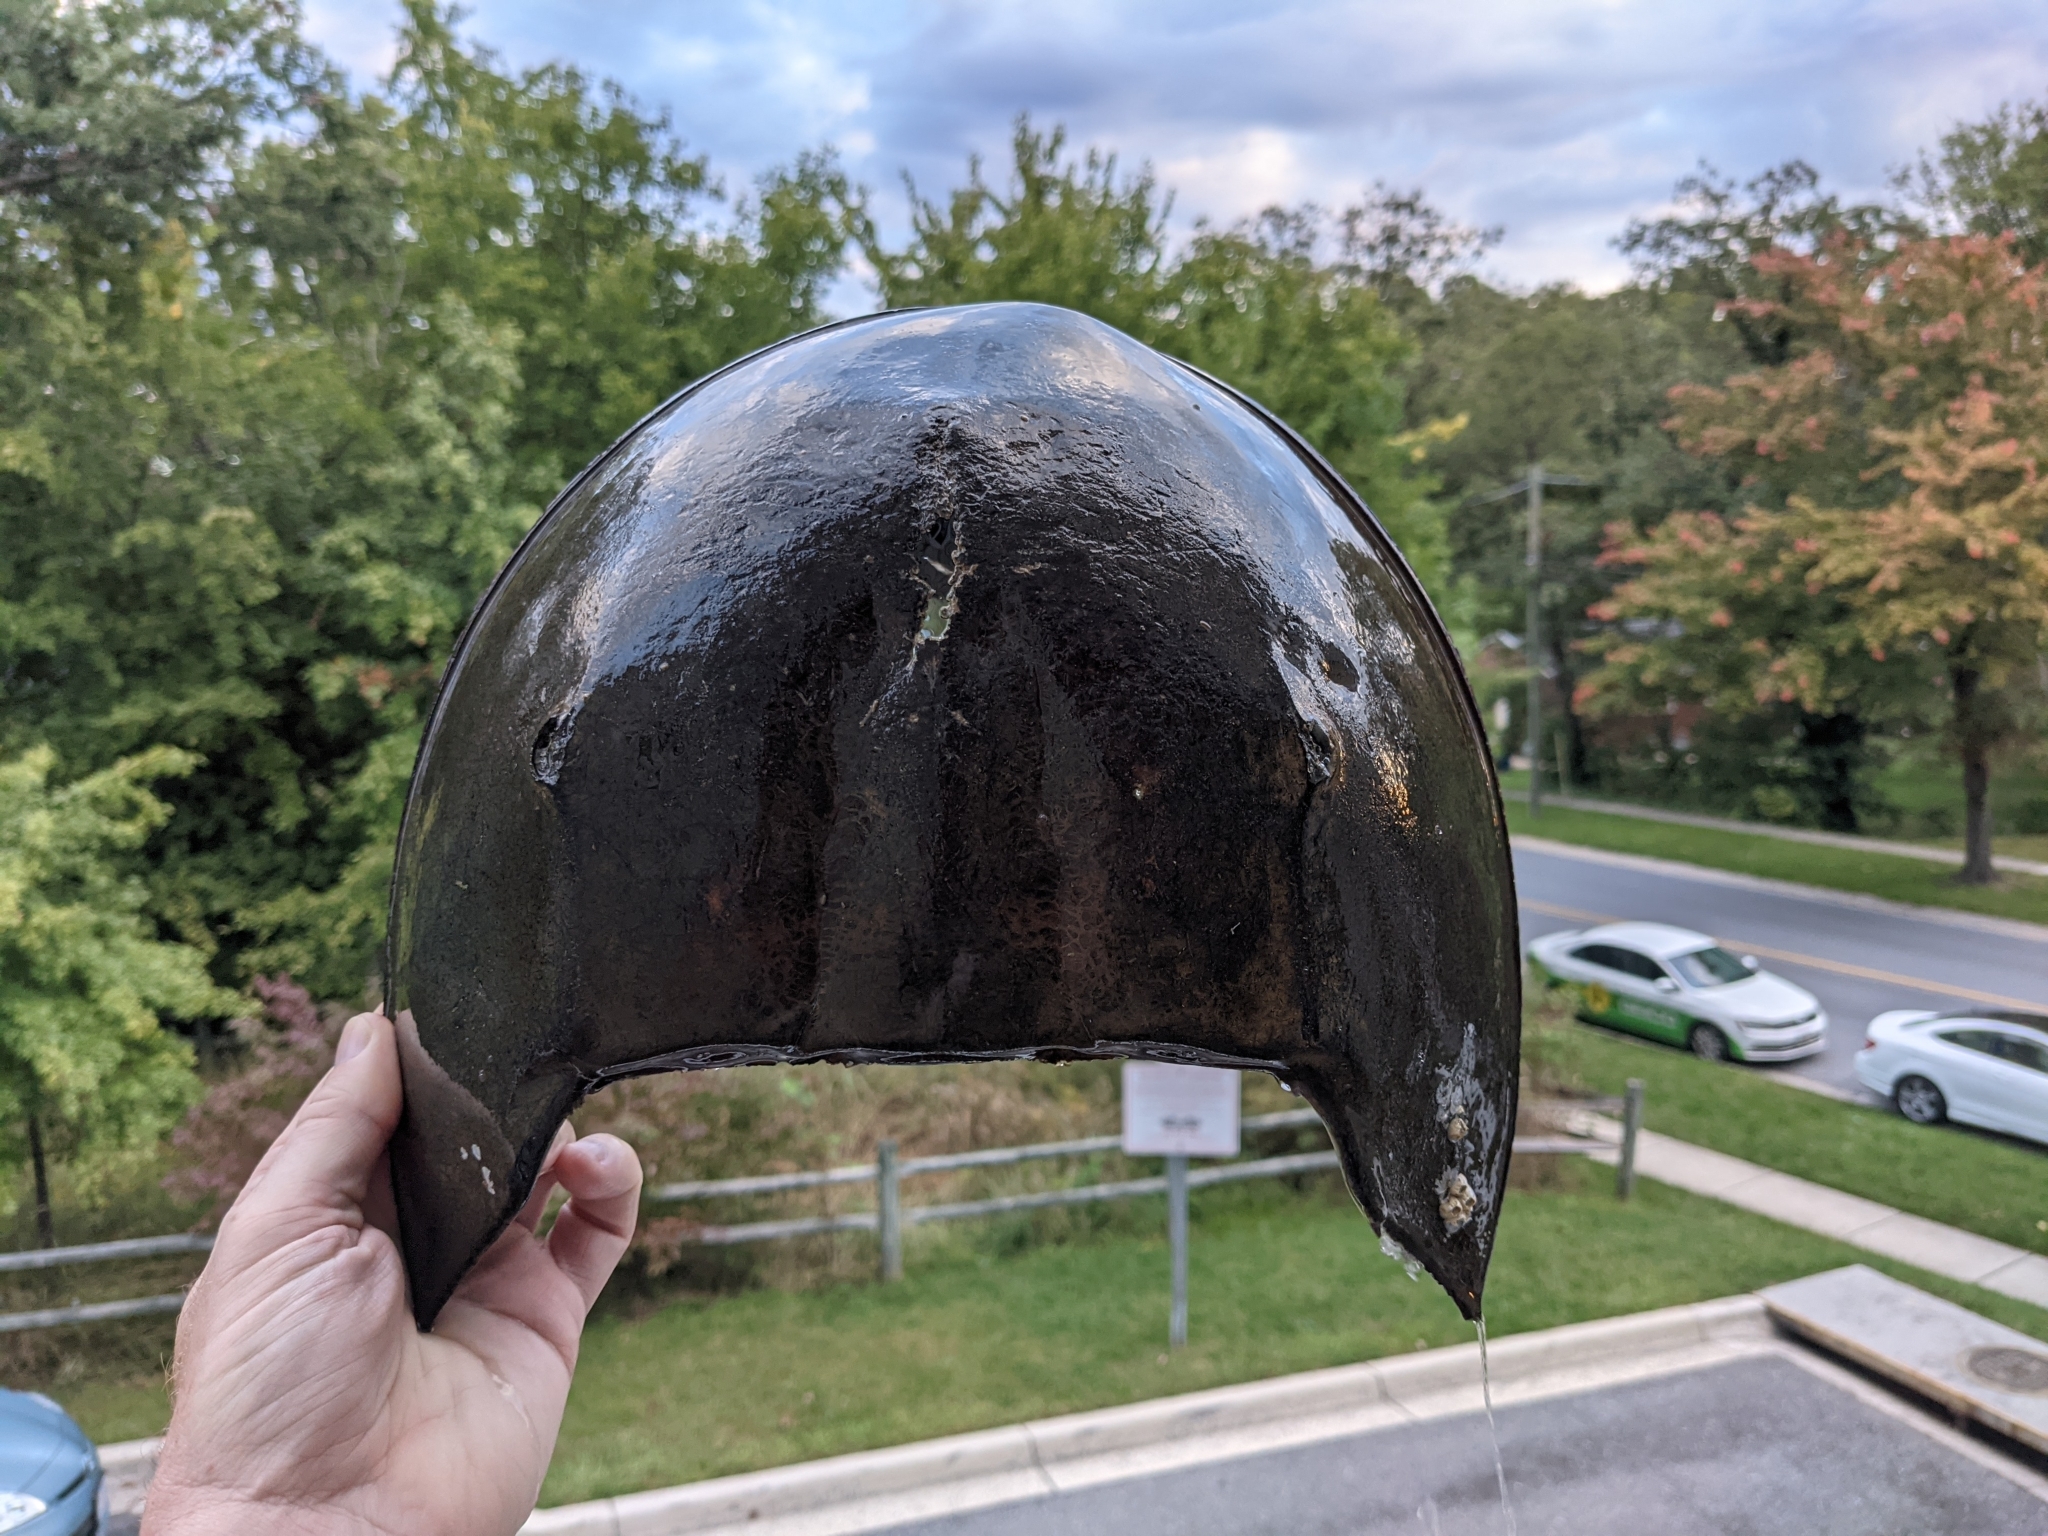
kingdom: Animalia
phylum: Arthropoda
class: Merostomata
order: Xiphosurida
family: Limulidae
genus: Limulus
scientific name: Limulus polyphemus
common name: Horseshoe crab
